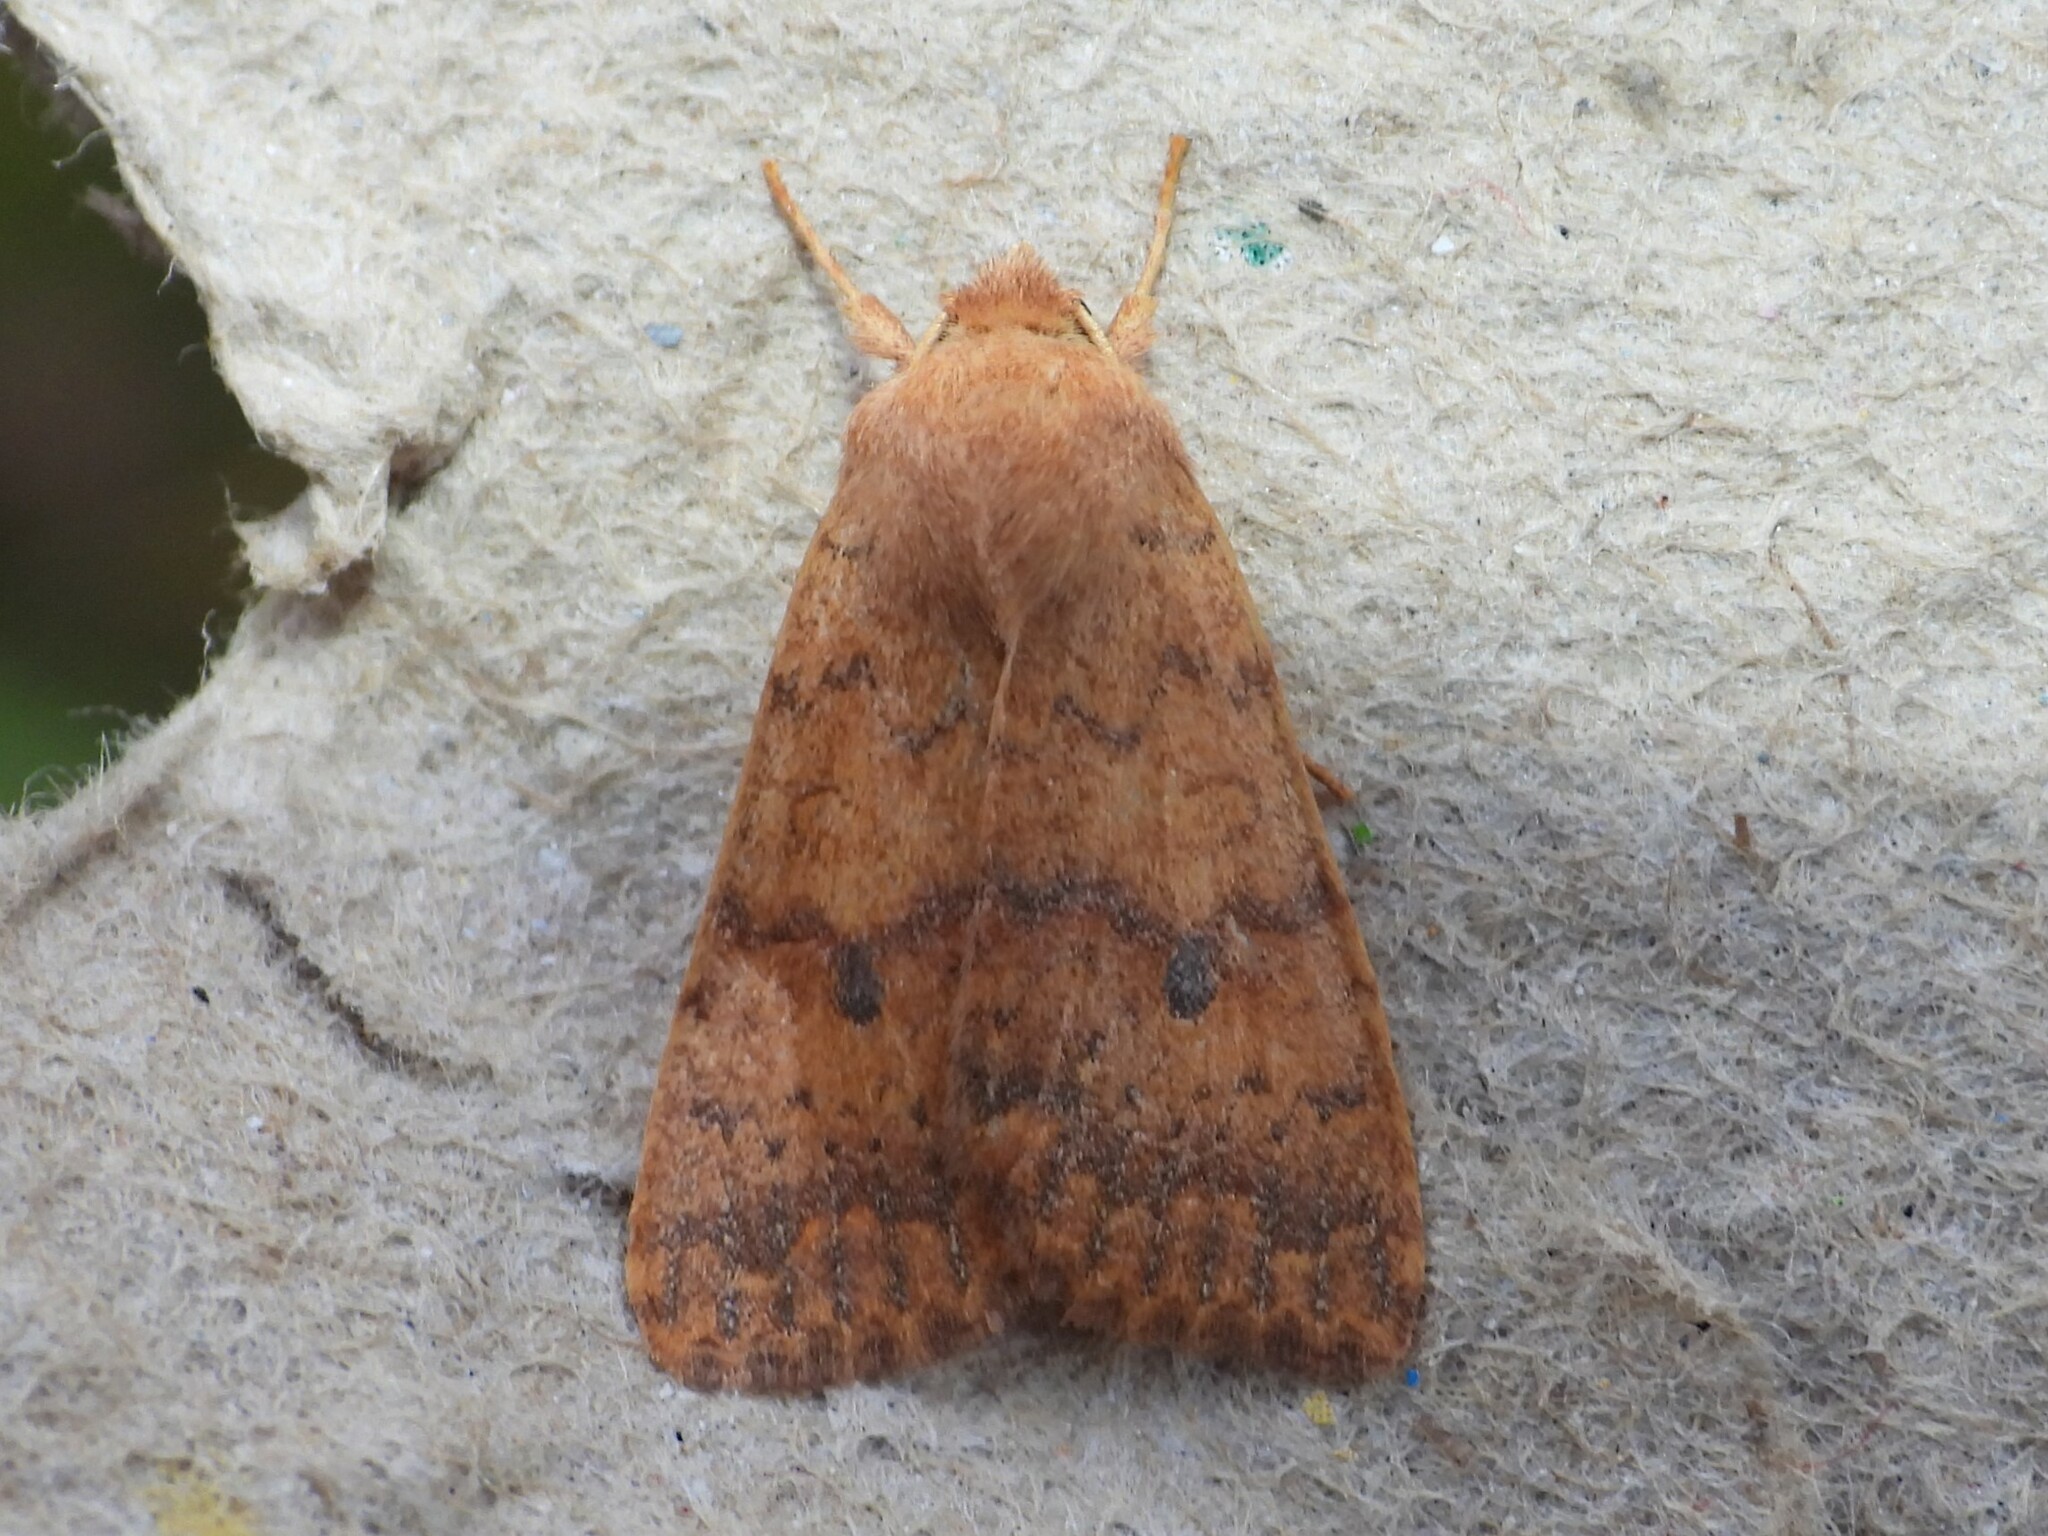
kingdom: Animalia
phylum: Arthropoda
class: Insecta
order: Lepidoptera
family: Noctuidae
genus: Agrochola
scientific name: Agrochola bicolorago
